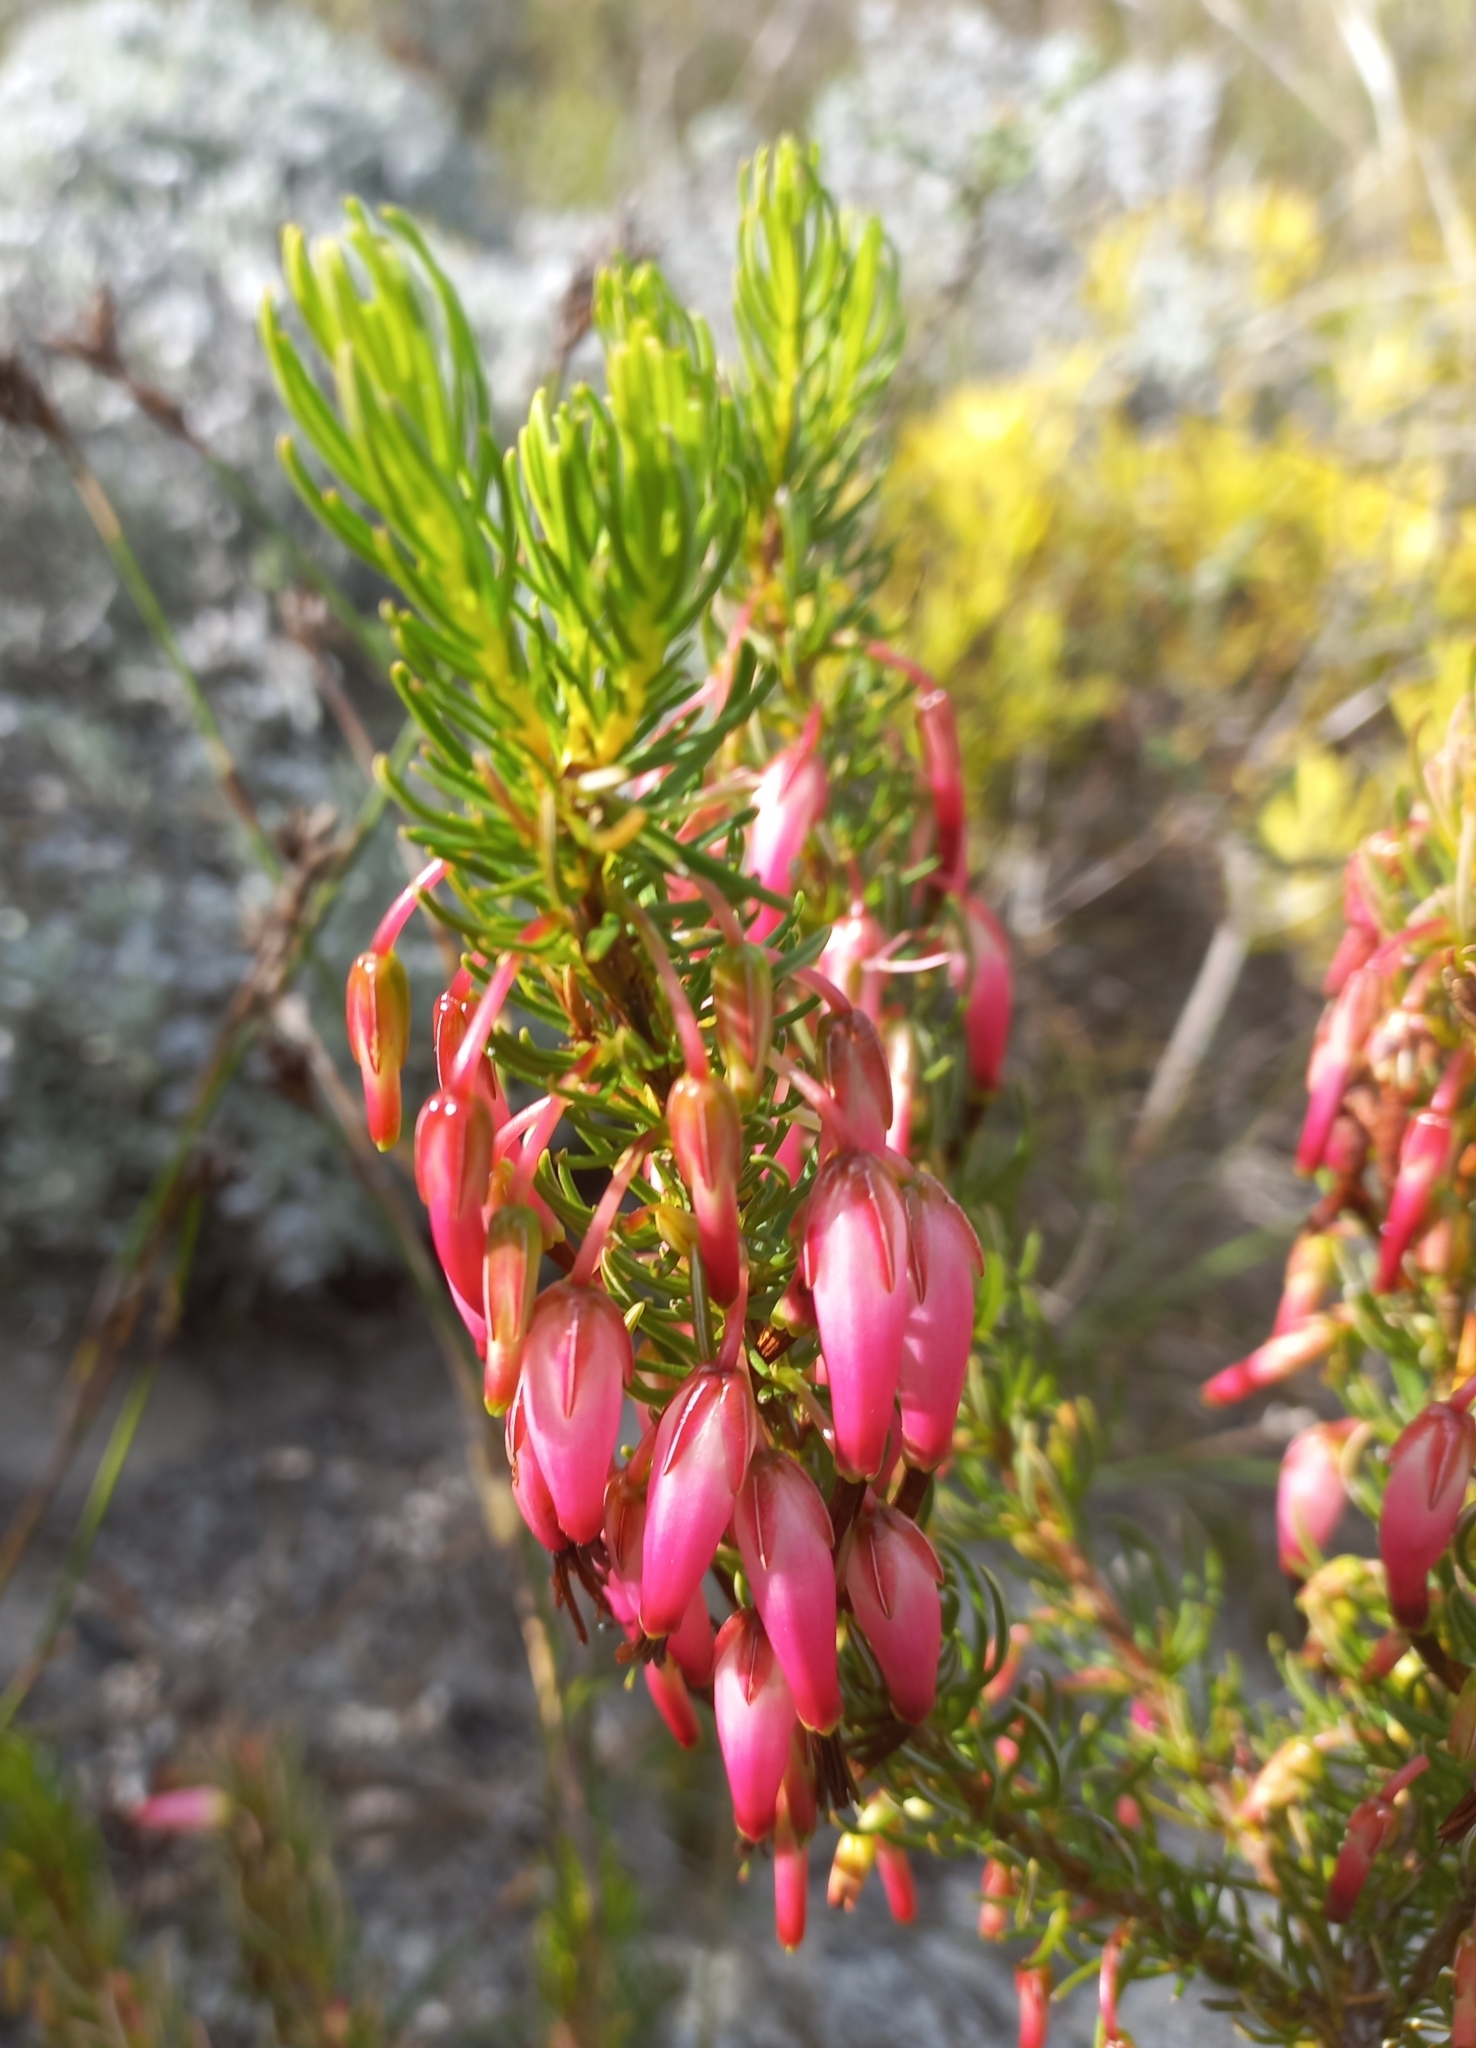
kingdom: Plantae
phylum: Tracheophyta
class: Magnoliopsida
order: Ericales
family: Ericaceae
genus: Erica
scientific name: Erica plukenetii
